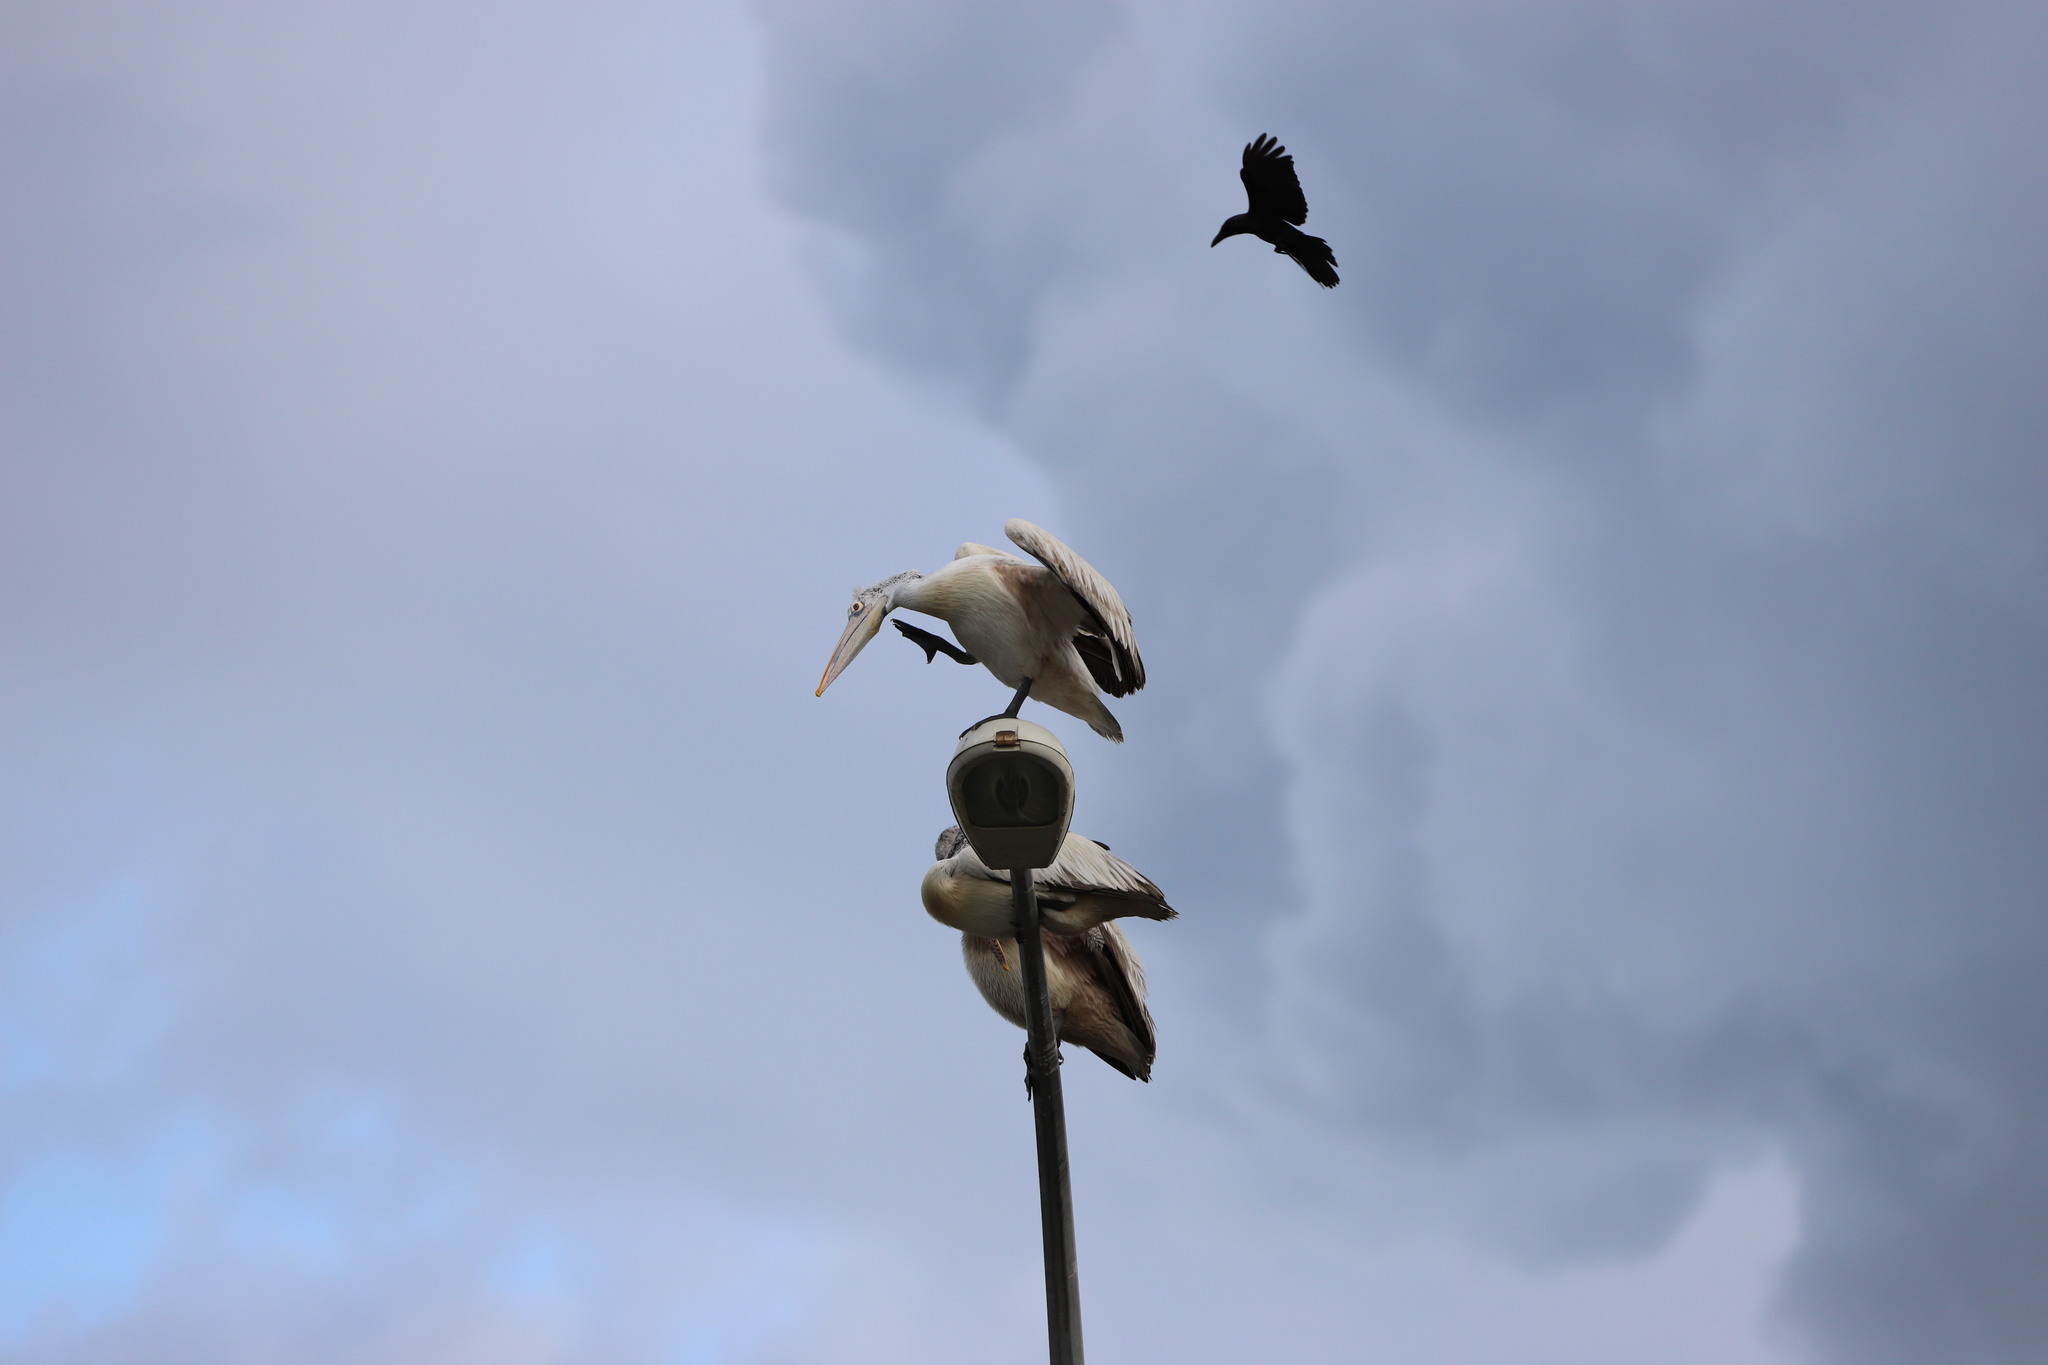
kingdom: Animalia
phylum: Chordata
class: Aves
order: Pelecaniformes
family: Pelecanidae
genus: Pelecanus
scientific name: Pelecanus philippensis
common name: Spot-billed pelican
